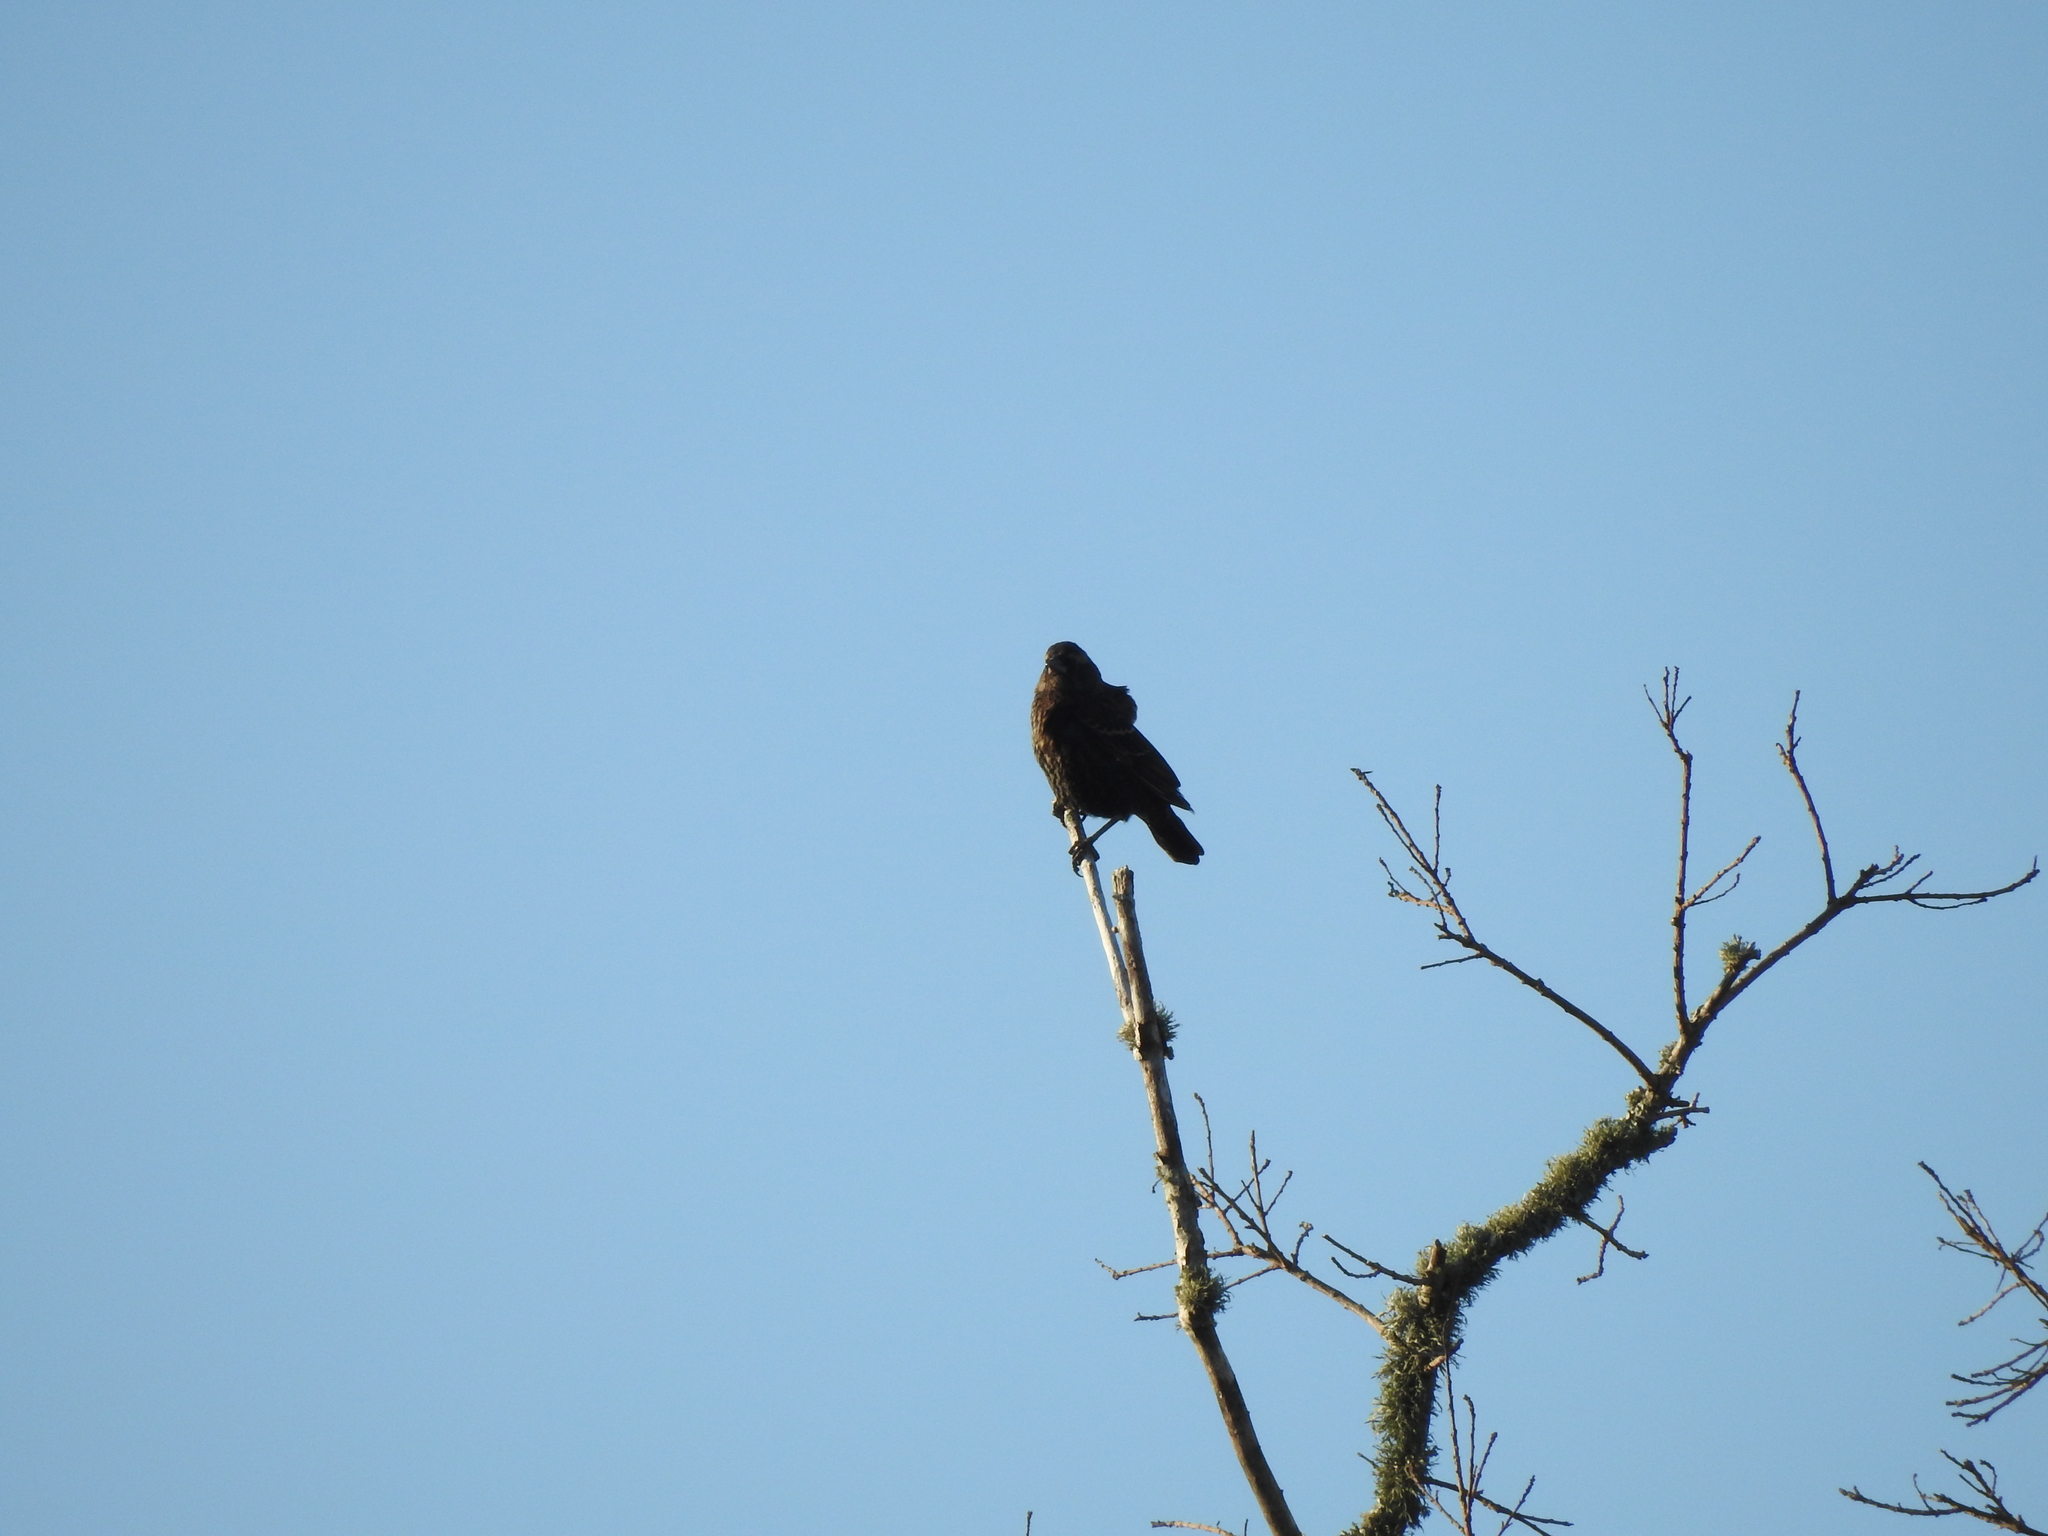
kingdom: Animalia
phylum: Chordata
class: Aves
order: Passeriformes
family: Icteridae
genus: Agelaius
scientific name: Agelaius phoeniceus
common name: Red-winged blackbird
